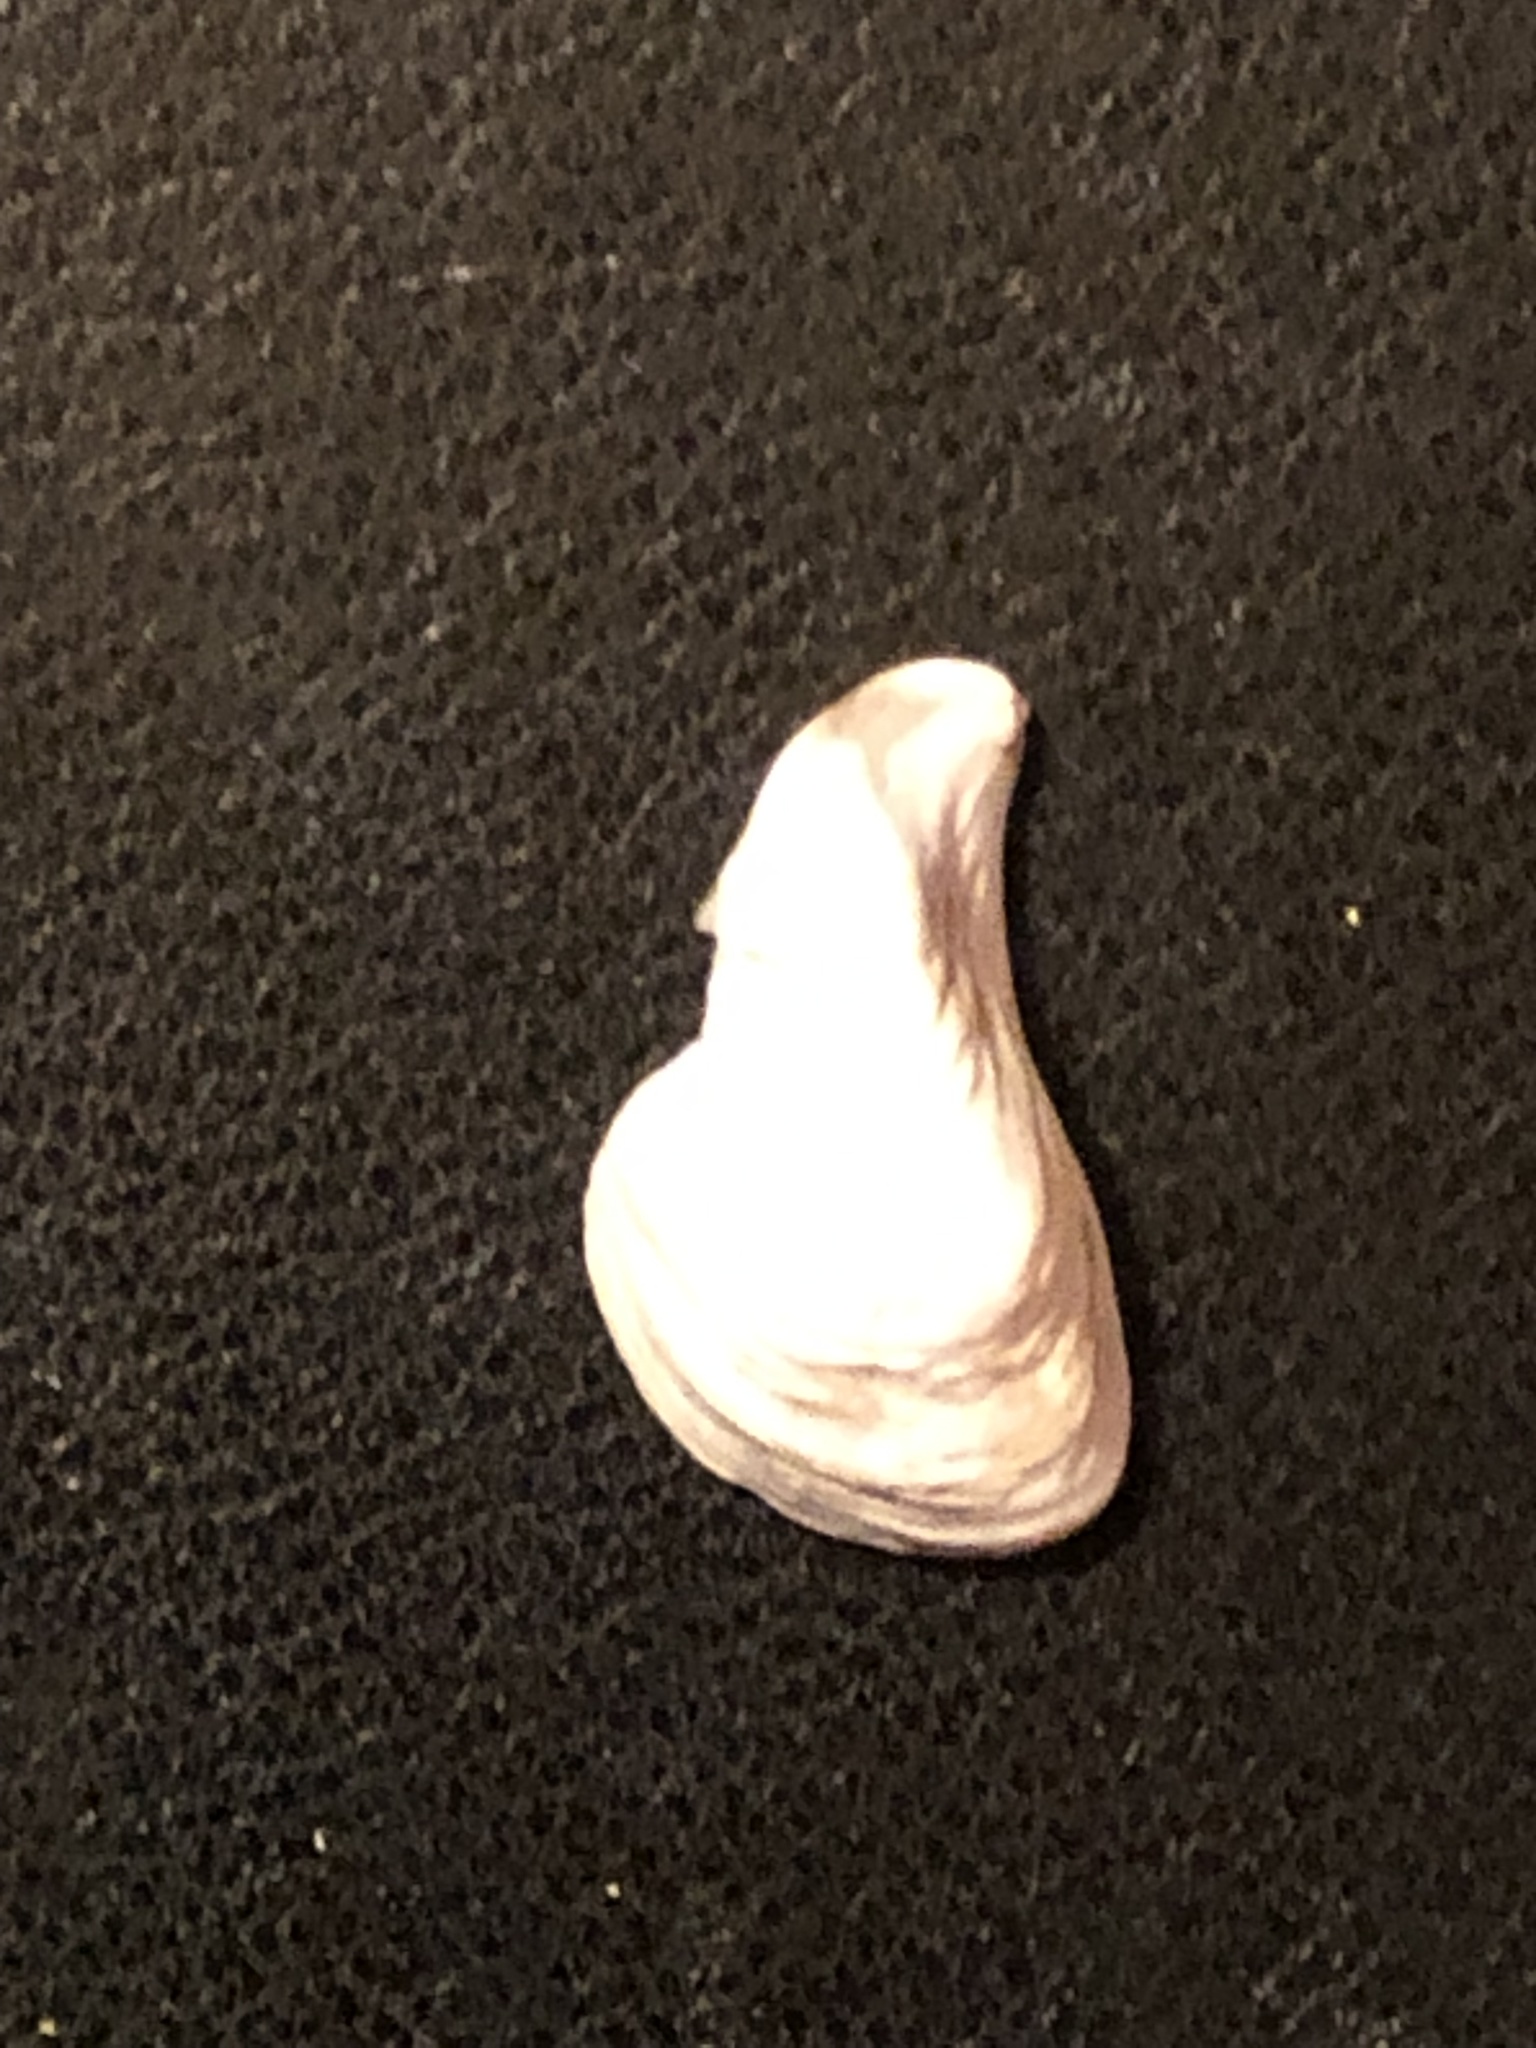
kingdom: Animalia
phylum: Mollusca
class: Bivalvia
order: Myida
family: Dreissenidae
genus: Dreissena
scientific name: Dreissena bugensis
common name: Quagga mussel
